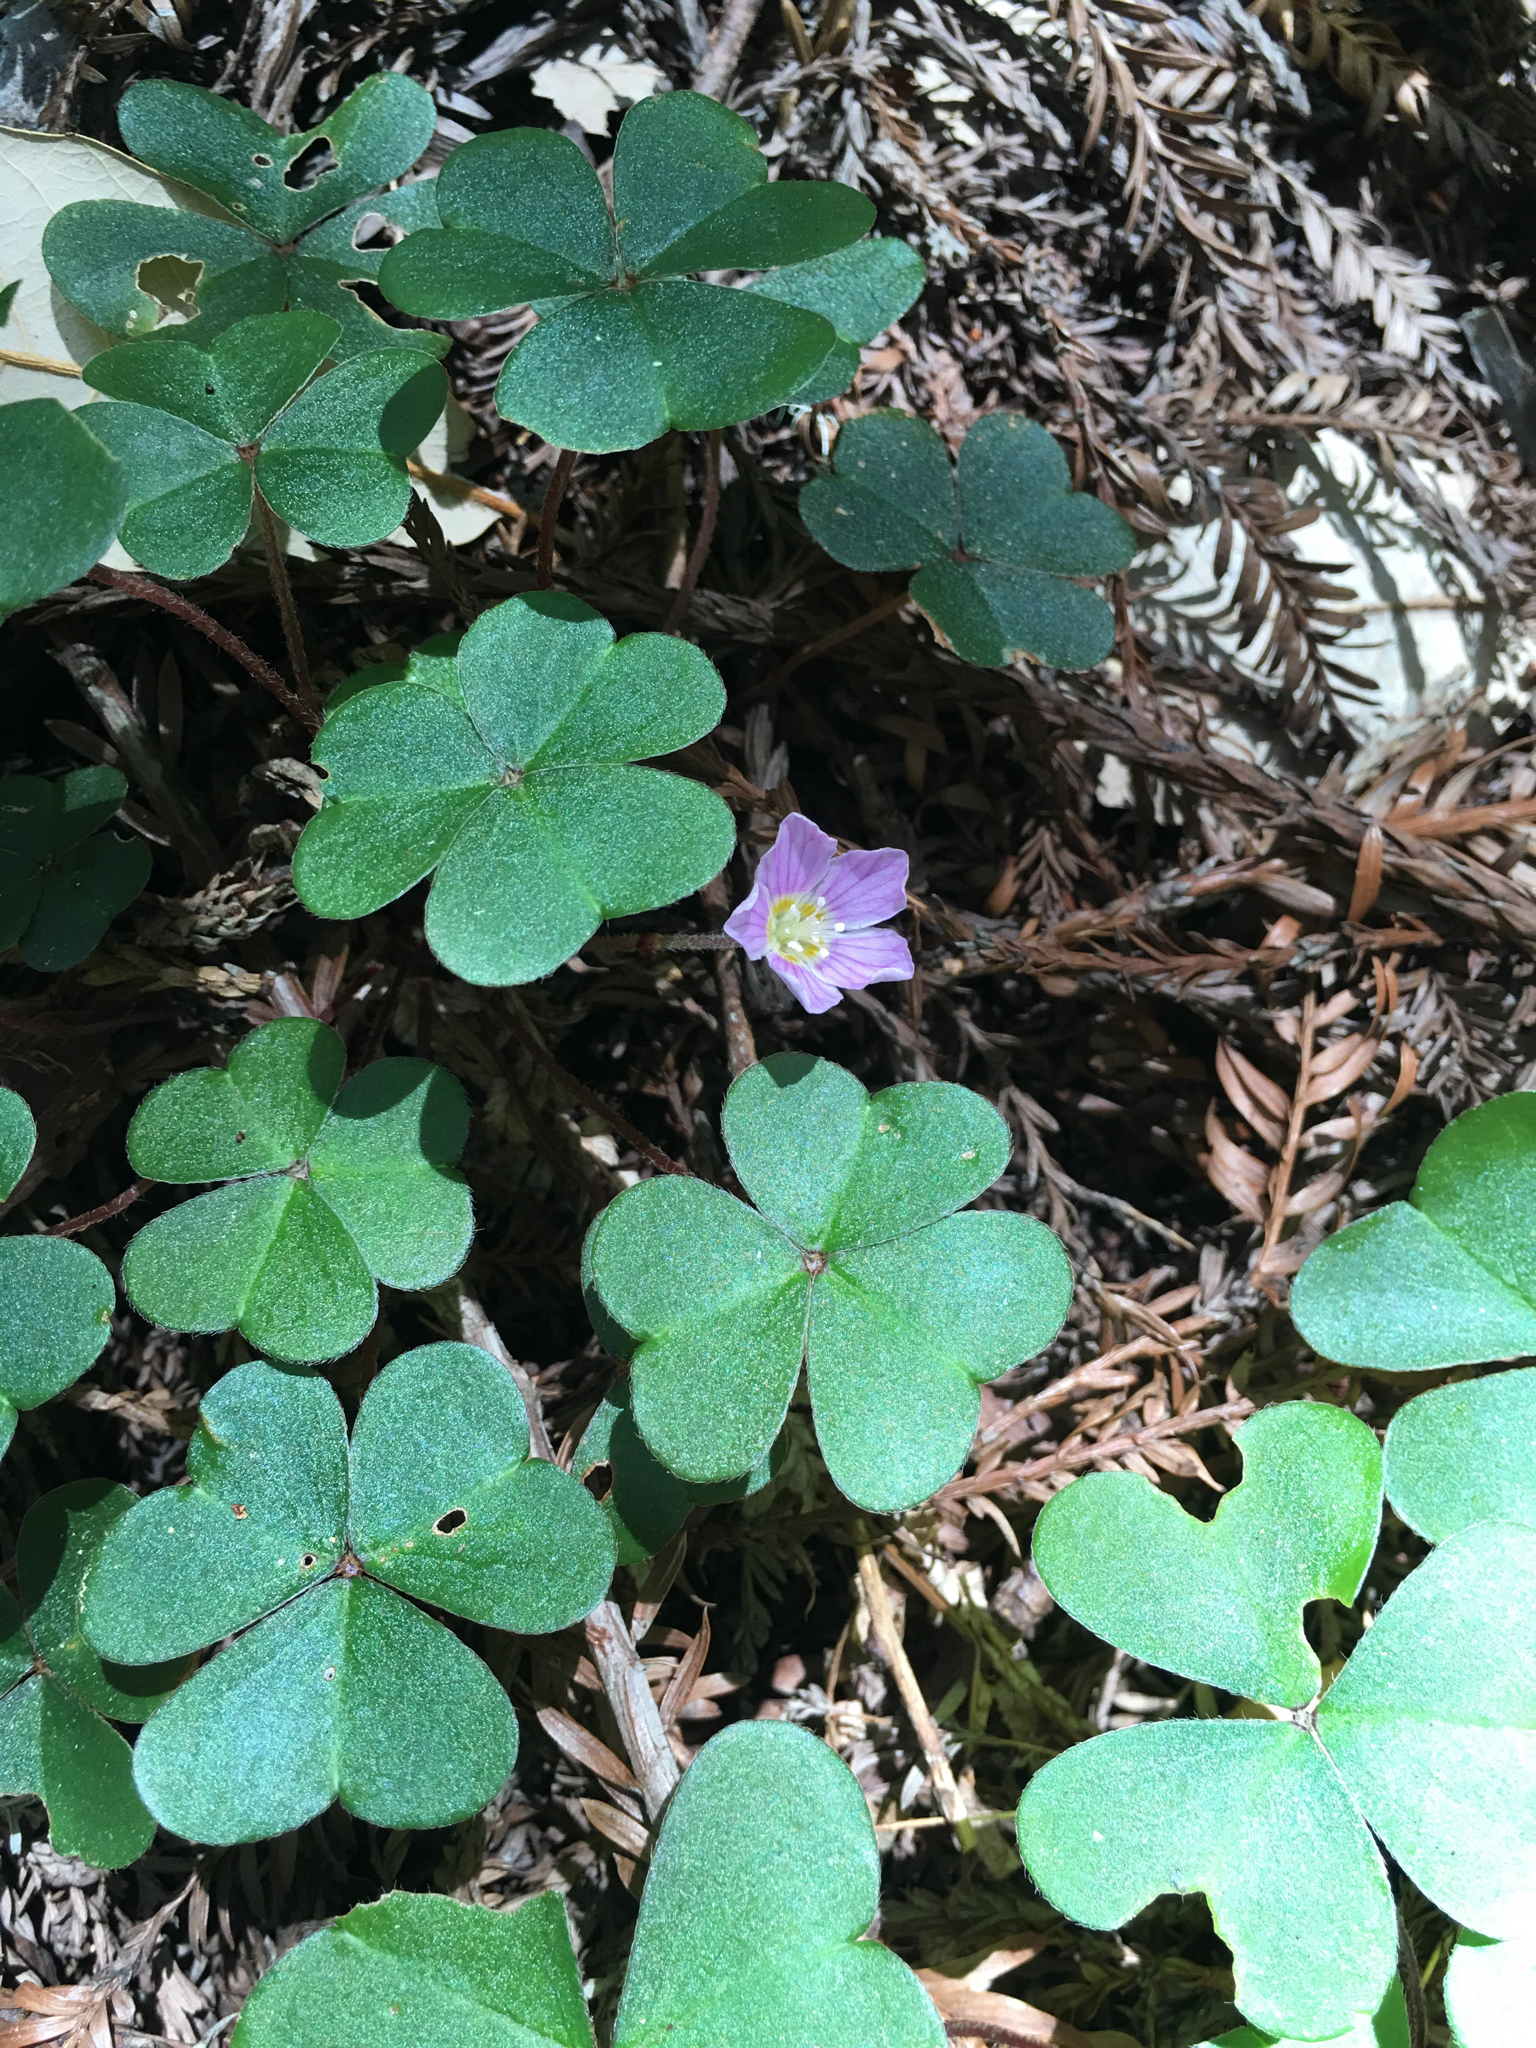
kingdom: Plantae
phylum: Tracheophyta
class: Magnoliopsida
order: Oxalidales
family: Oxalidaceae
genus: Oxalis
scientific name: Oxalis oregana
